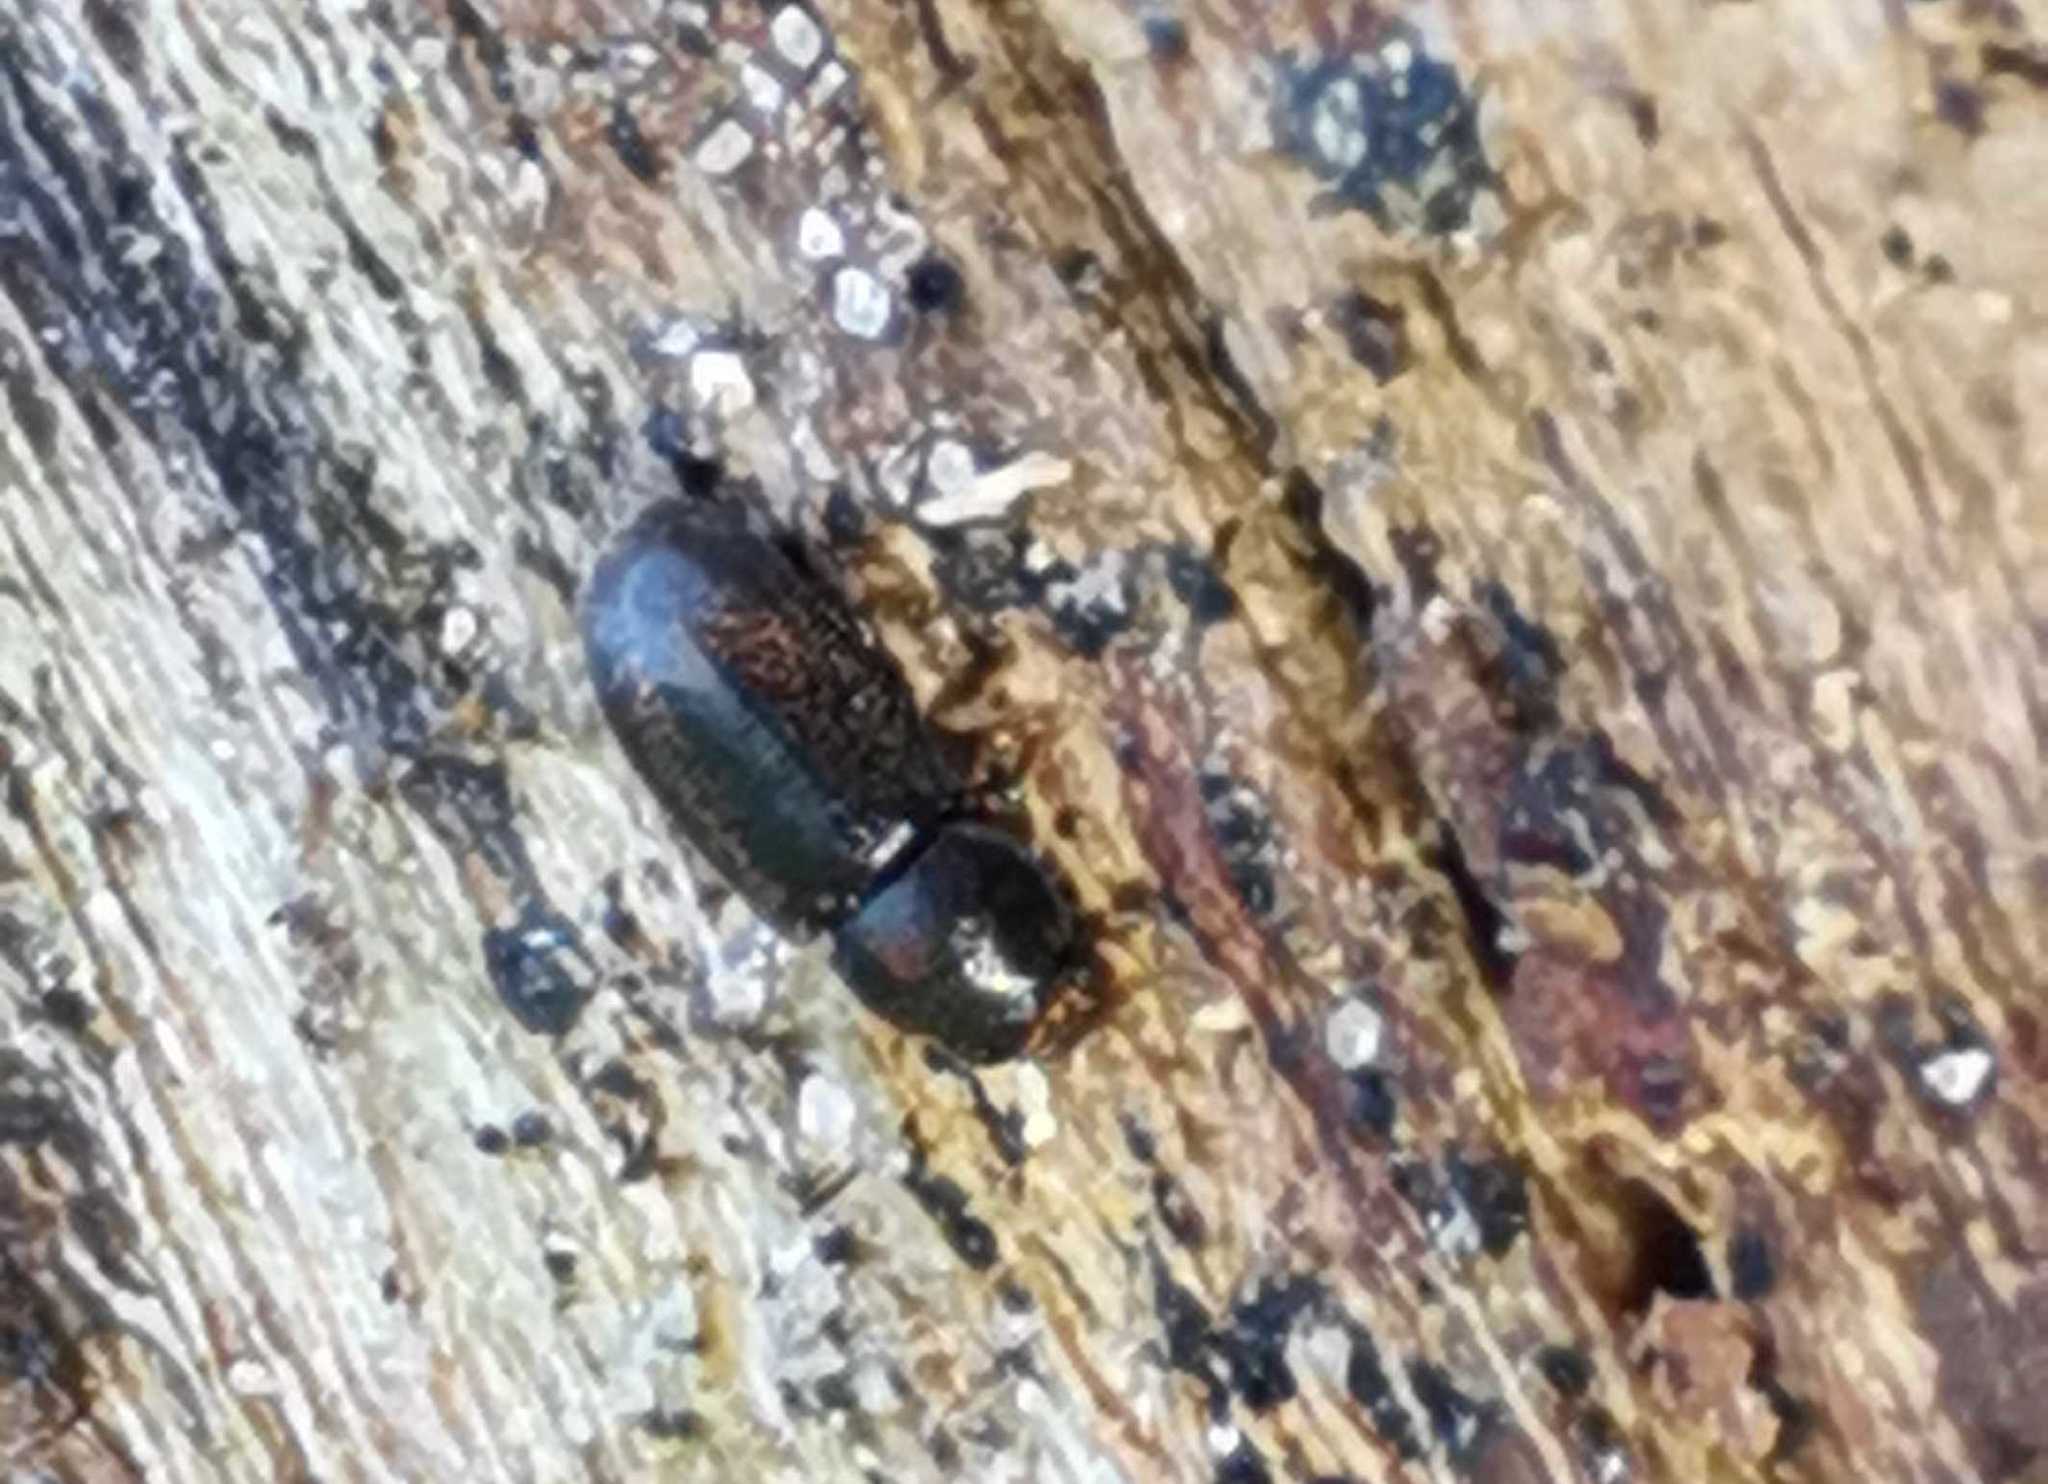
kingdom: Animalia
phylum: Arthropoda
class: Insecta
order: Coleoptera
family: Ciidae
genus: Cis
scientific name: Cis
